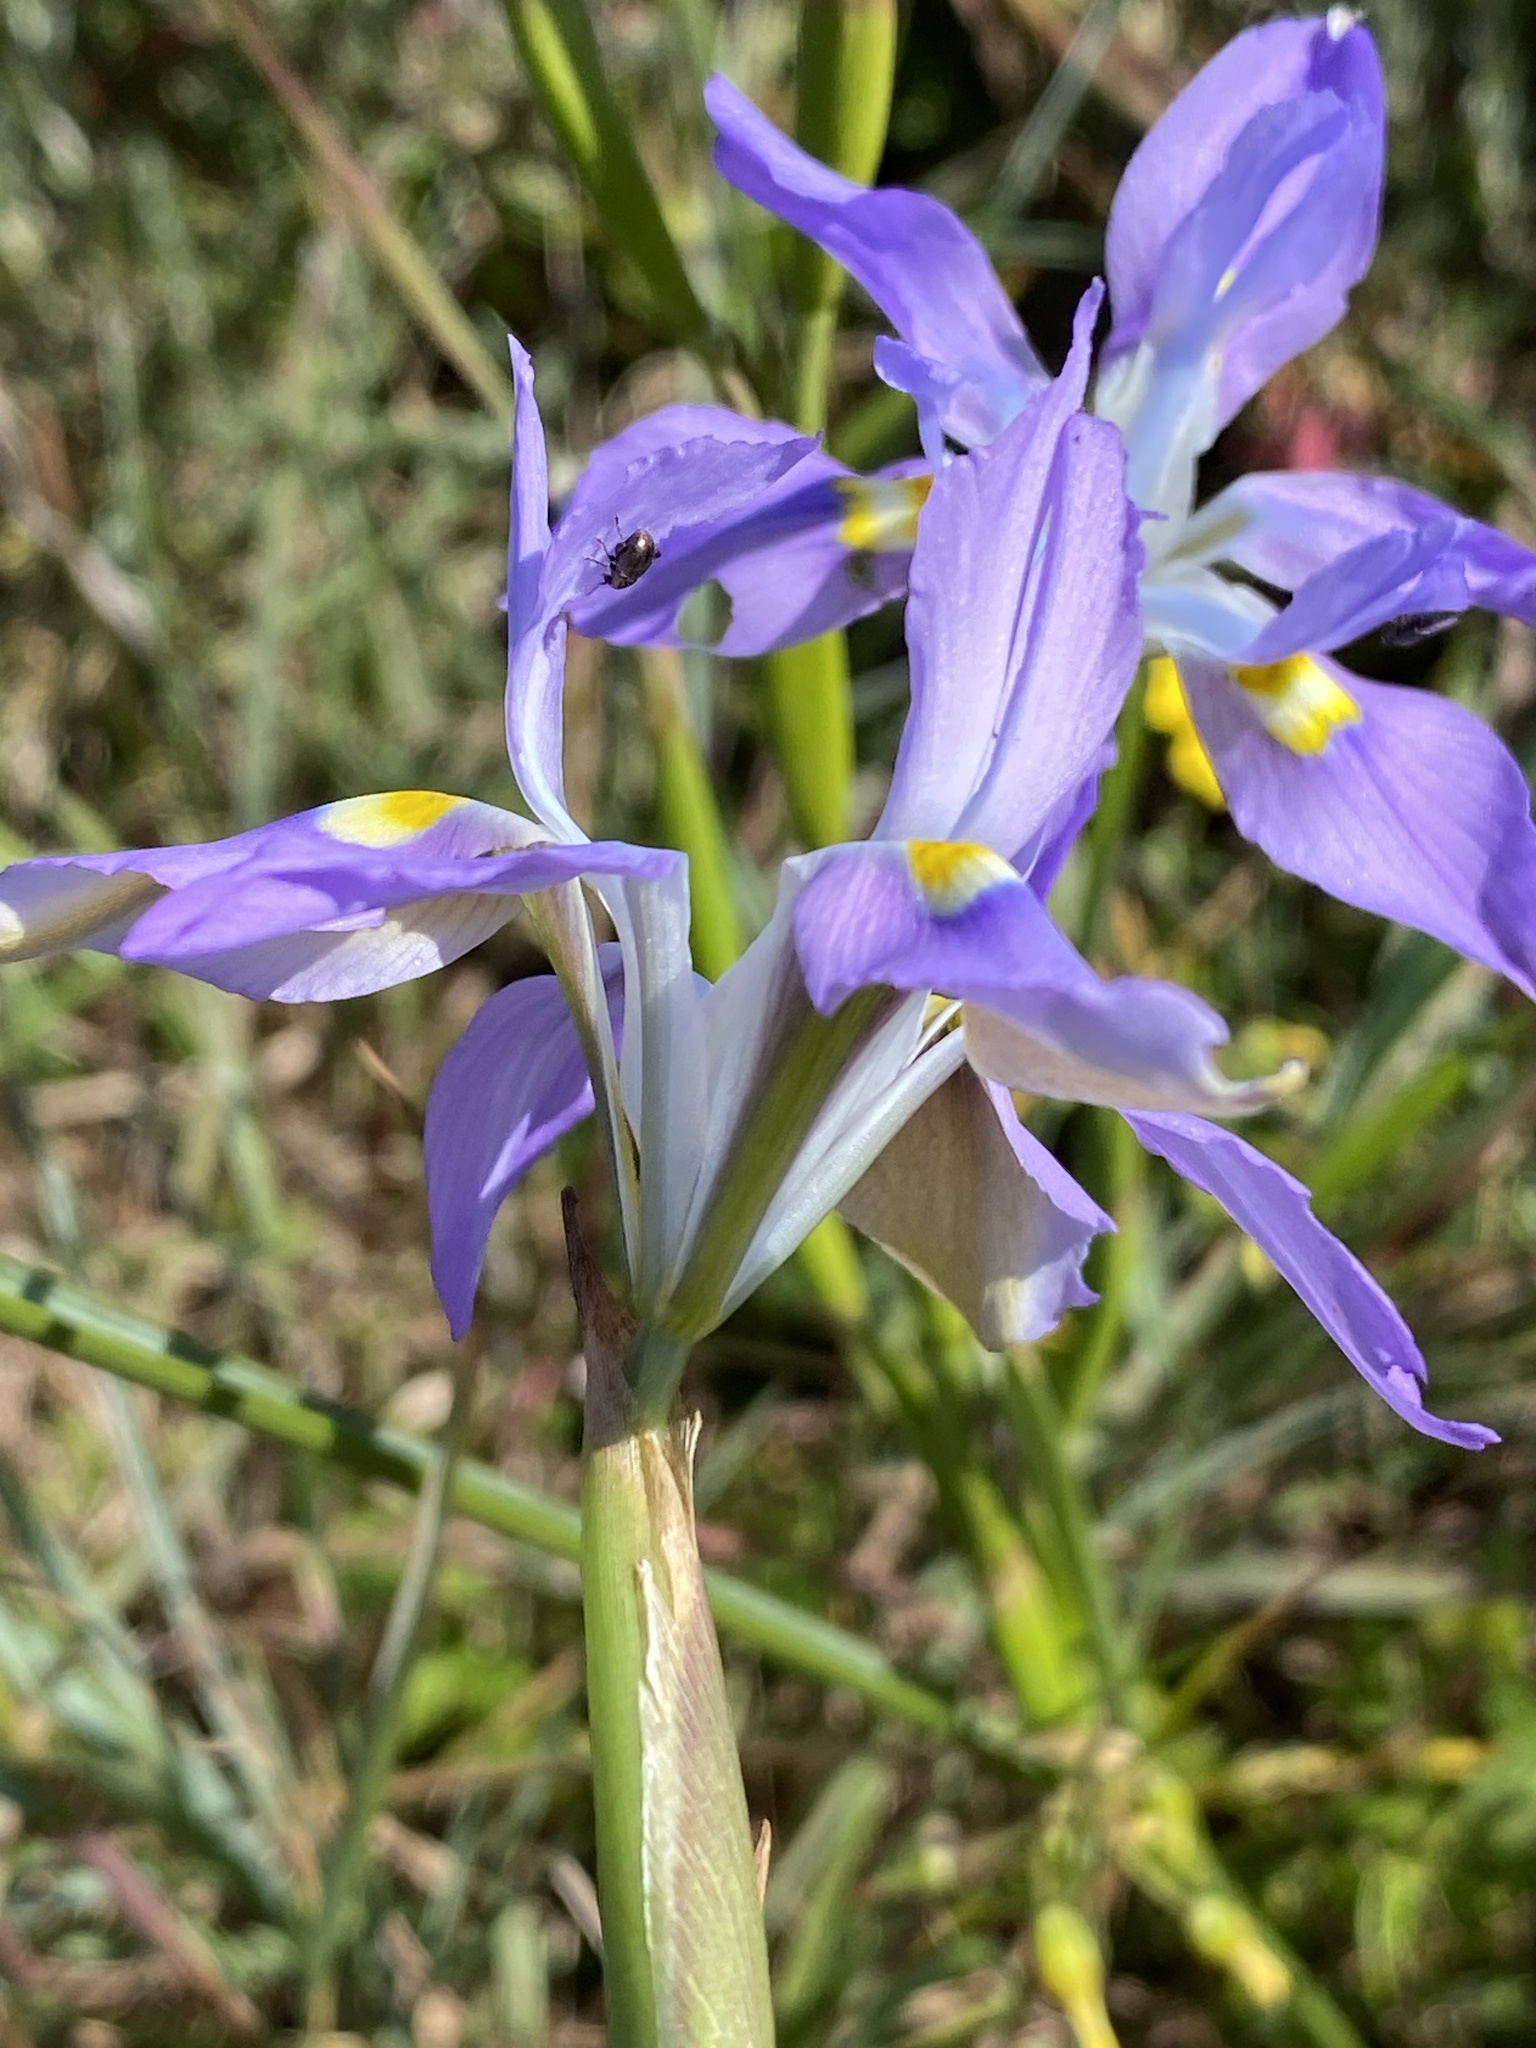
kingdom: Plantae
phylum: Tracheophyta
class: Liliopsida
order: Asparagales
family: Iridaceae
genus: Moraea
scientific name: Moraea fugax
